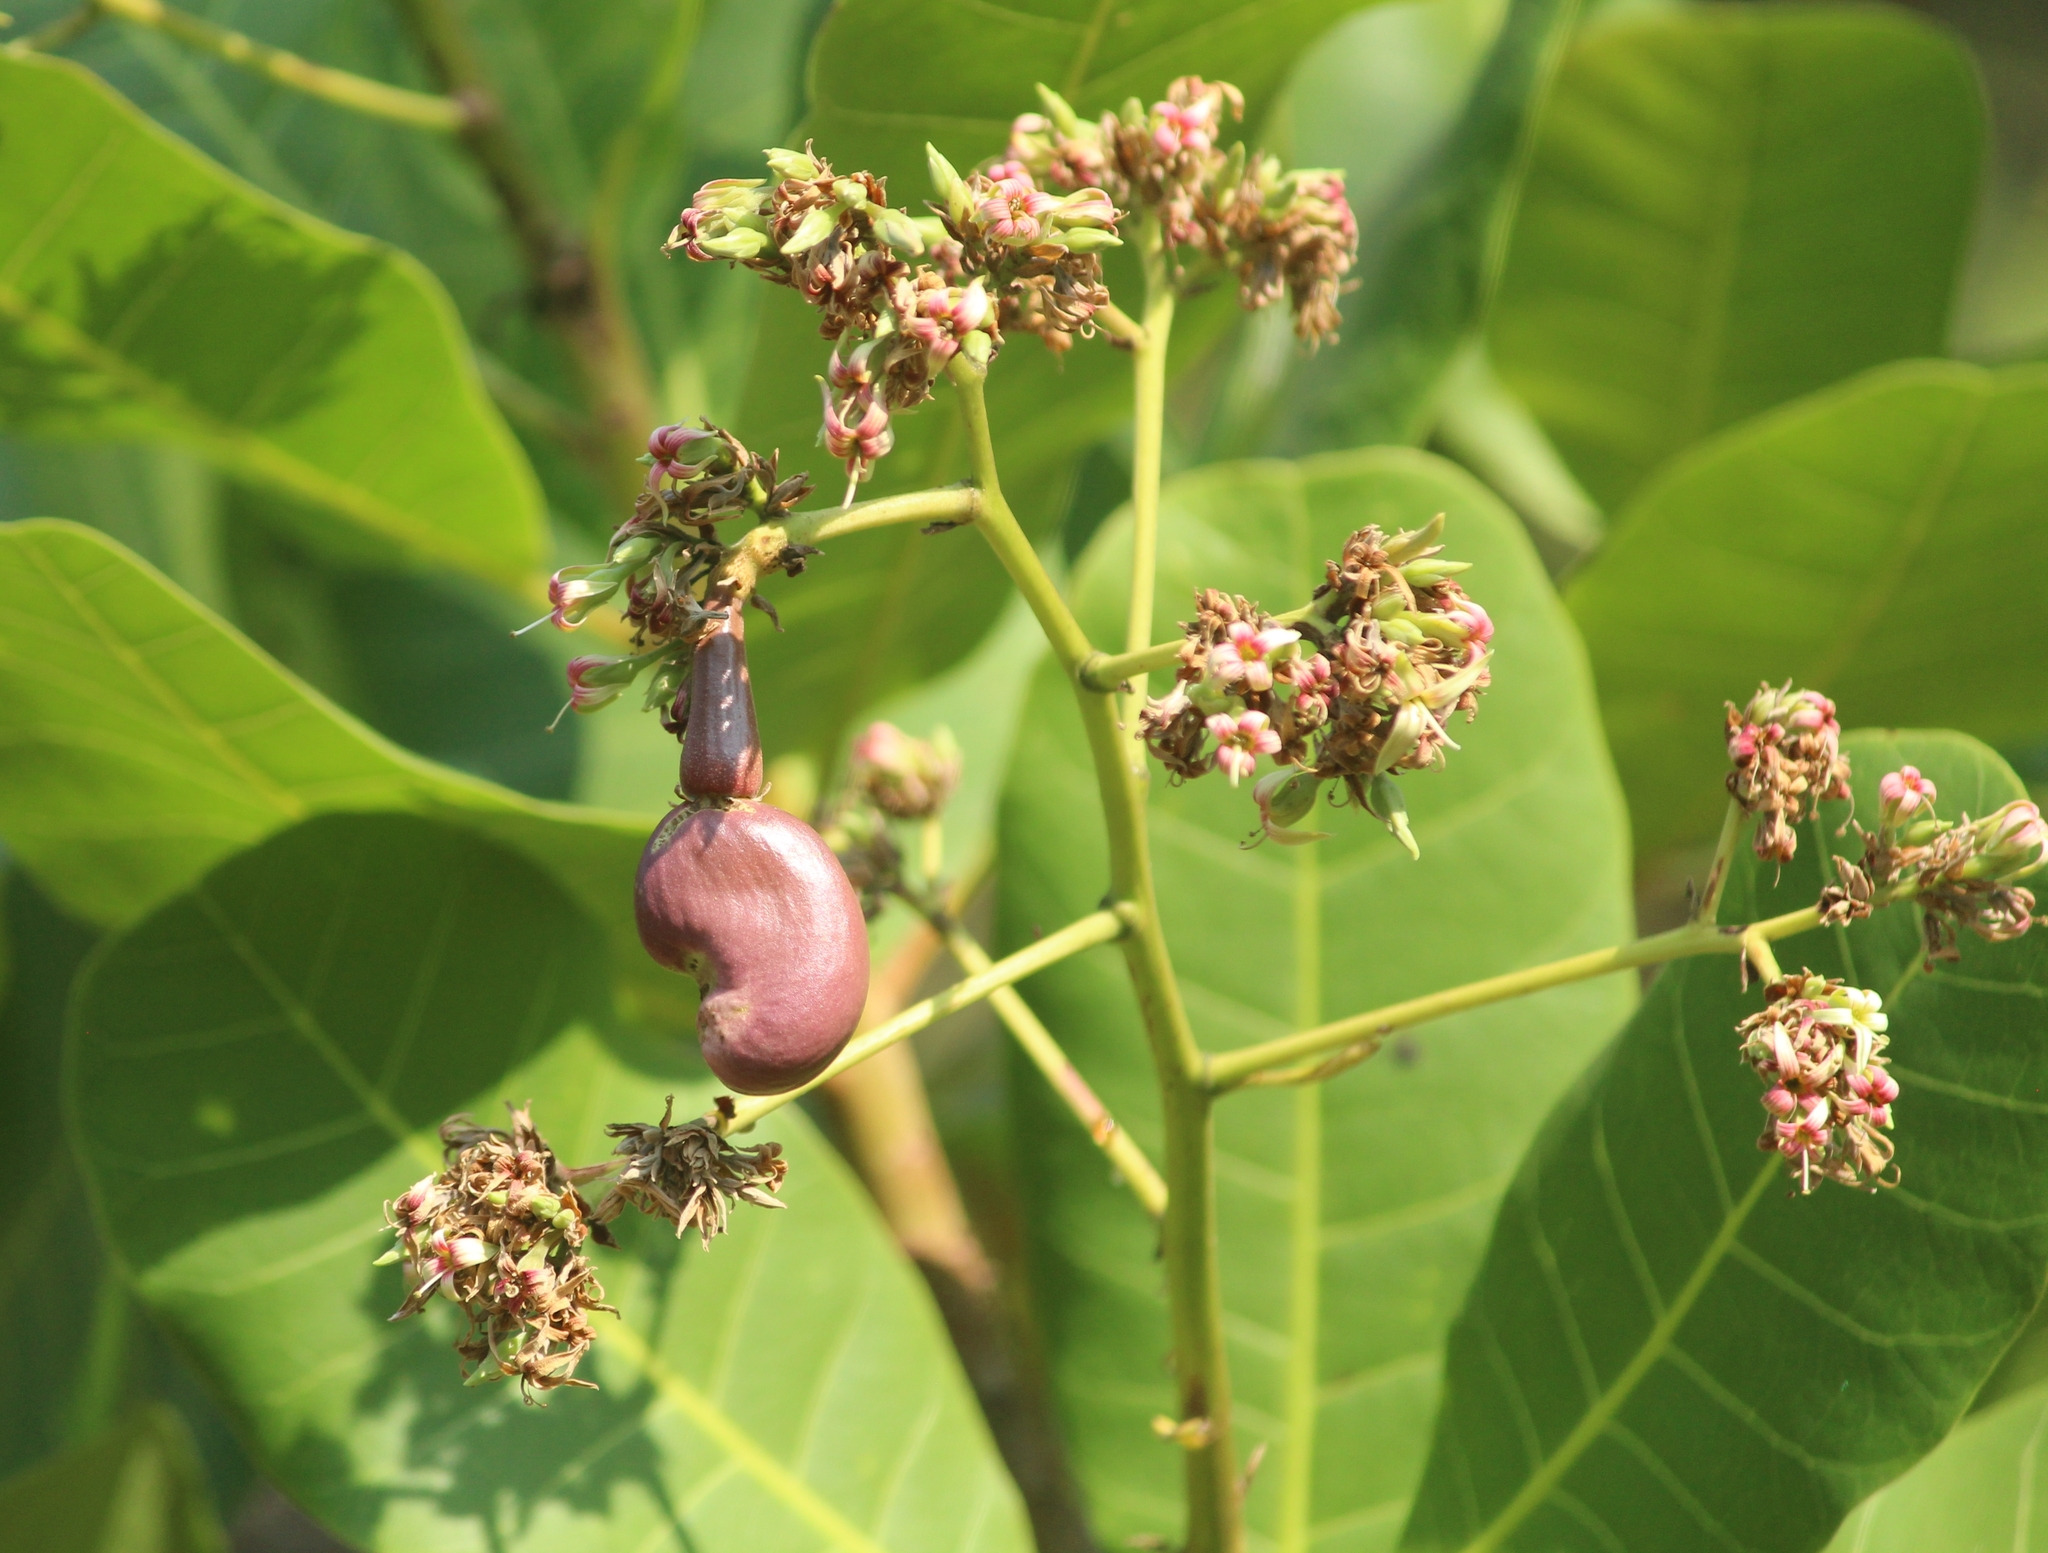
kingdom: Plantae
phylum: Tracheophyta
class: Magnoliopsida
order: Sapindales
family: Anacardiaceae
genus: Anacardium
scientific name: Anacardium occidentale
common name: Cashew
